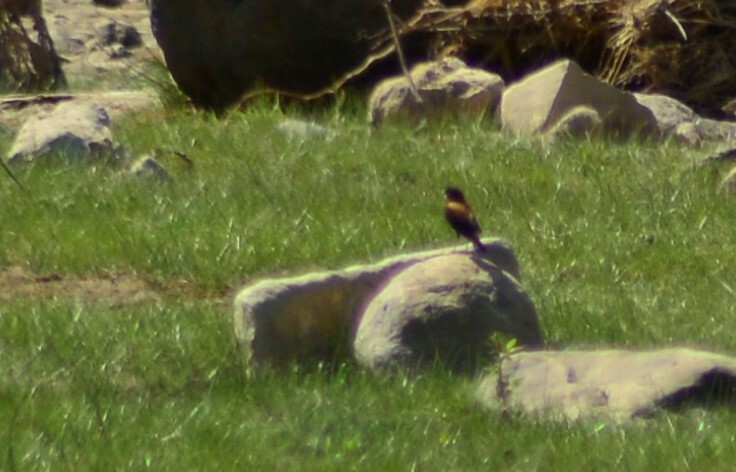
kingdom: Animalia
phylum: Chordata
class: Aves
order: Passeriformes
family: Tyrannidae
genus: Lessonia
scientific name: Lessonia rufa
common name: Austral negrito
